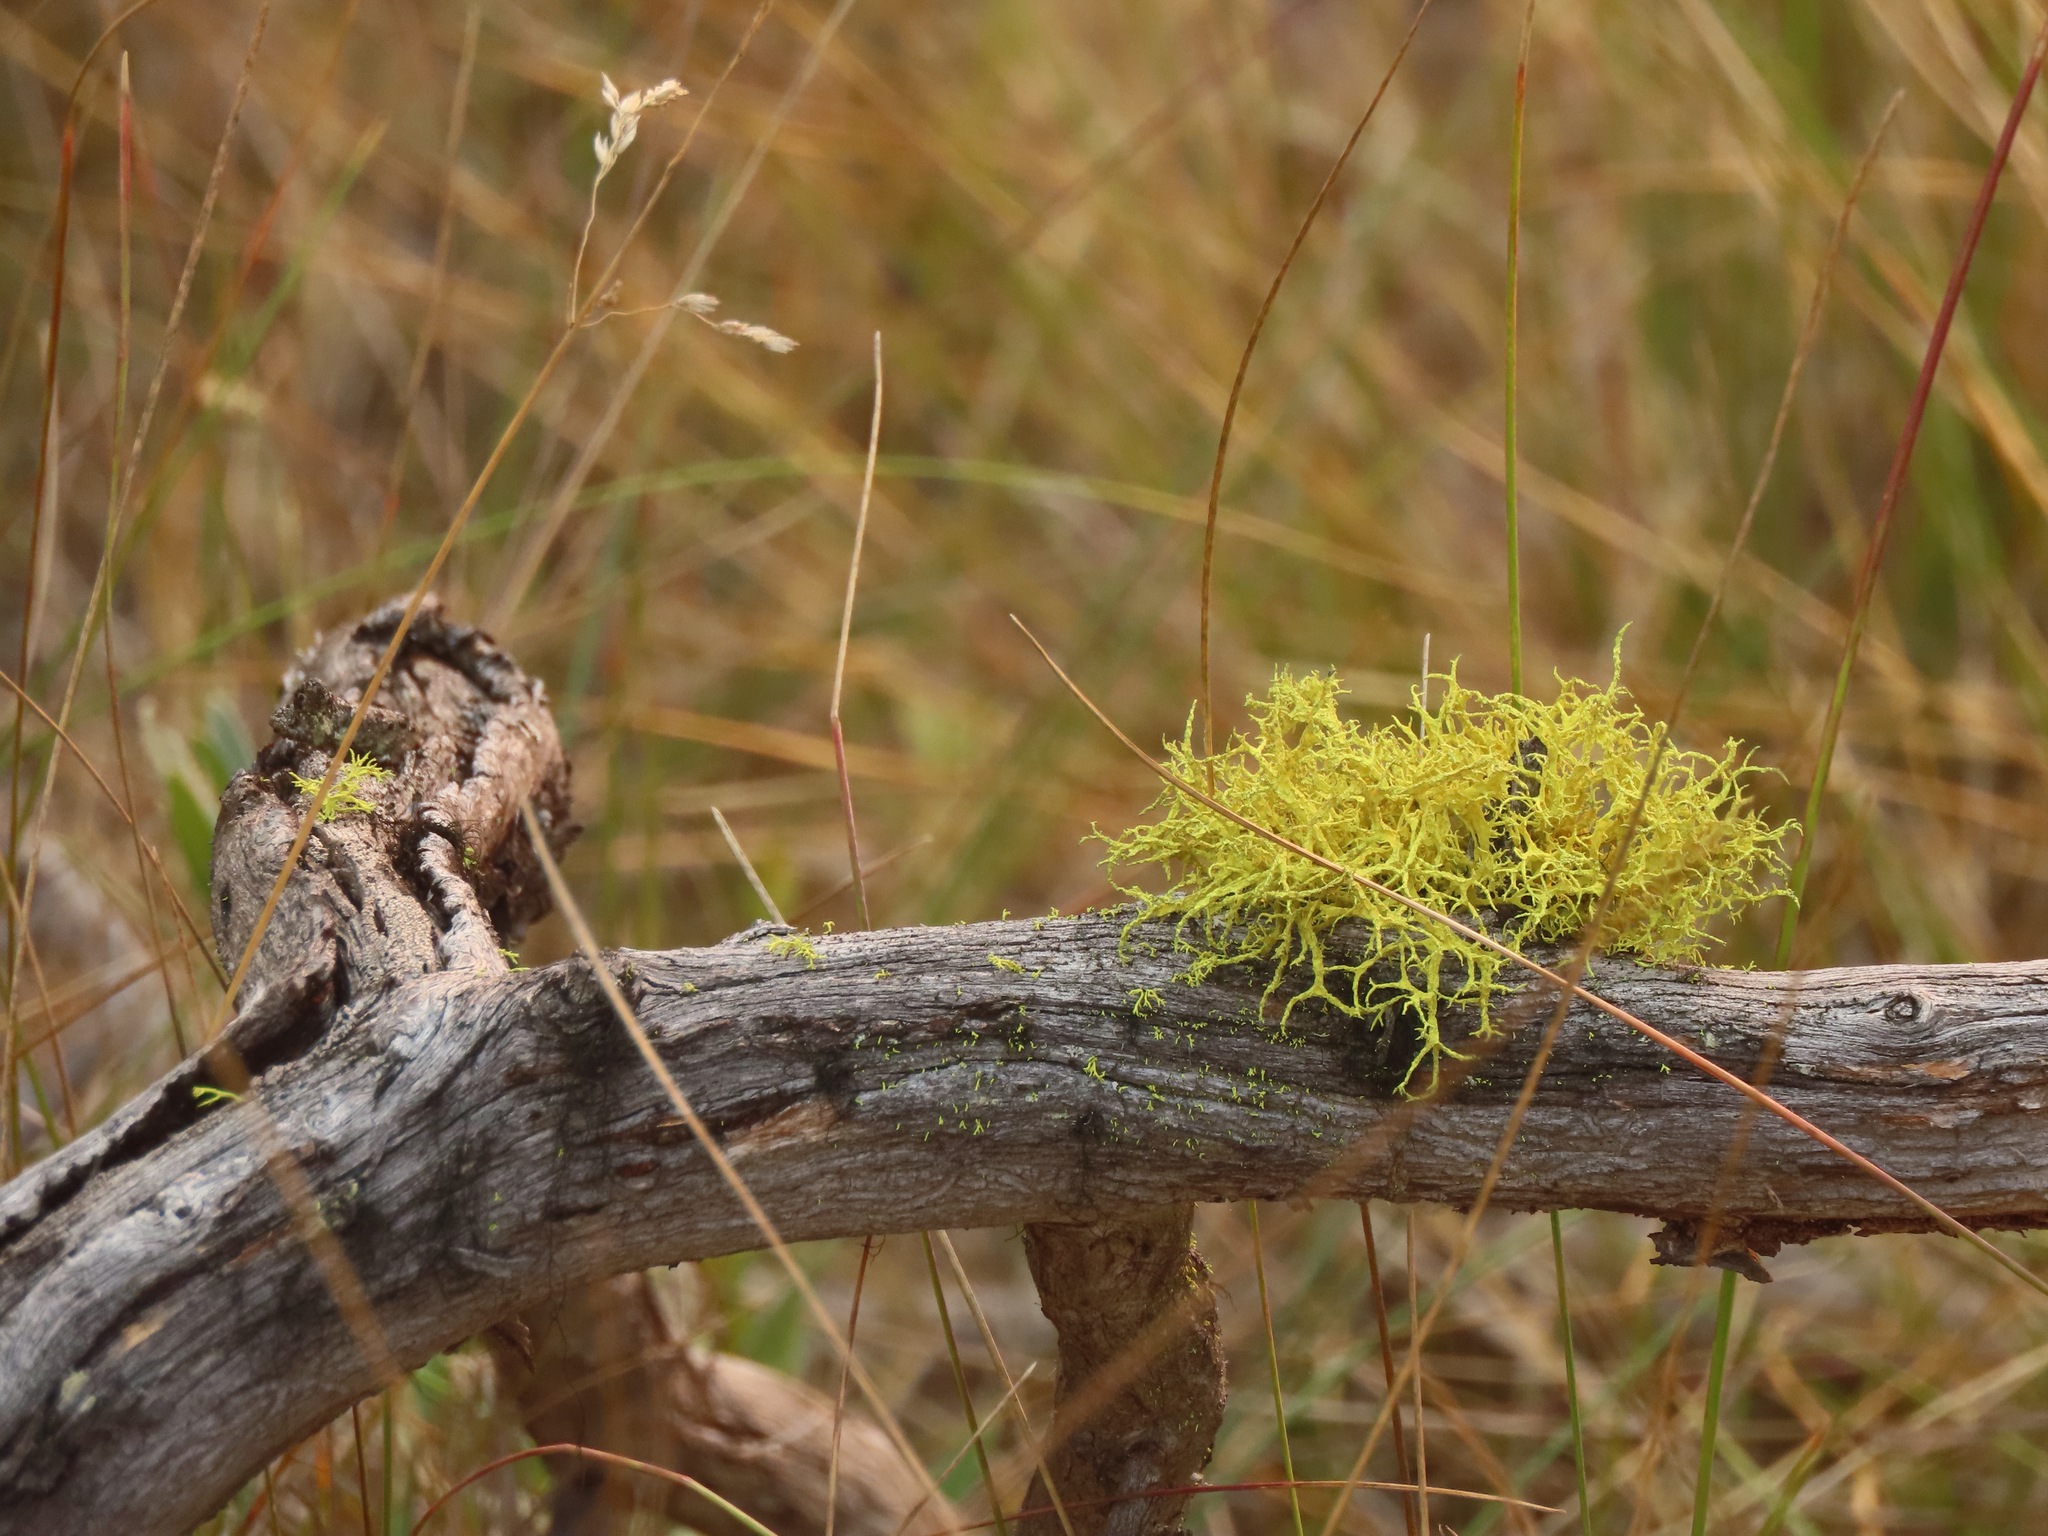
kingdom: Fungi
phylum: Ascomycota
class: Lecanoromycetes
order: Lecanorales
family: Parmeliaceae
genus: Letharia
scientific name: Letharia vulpina
